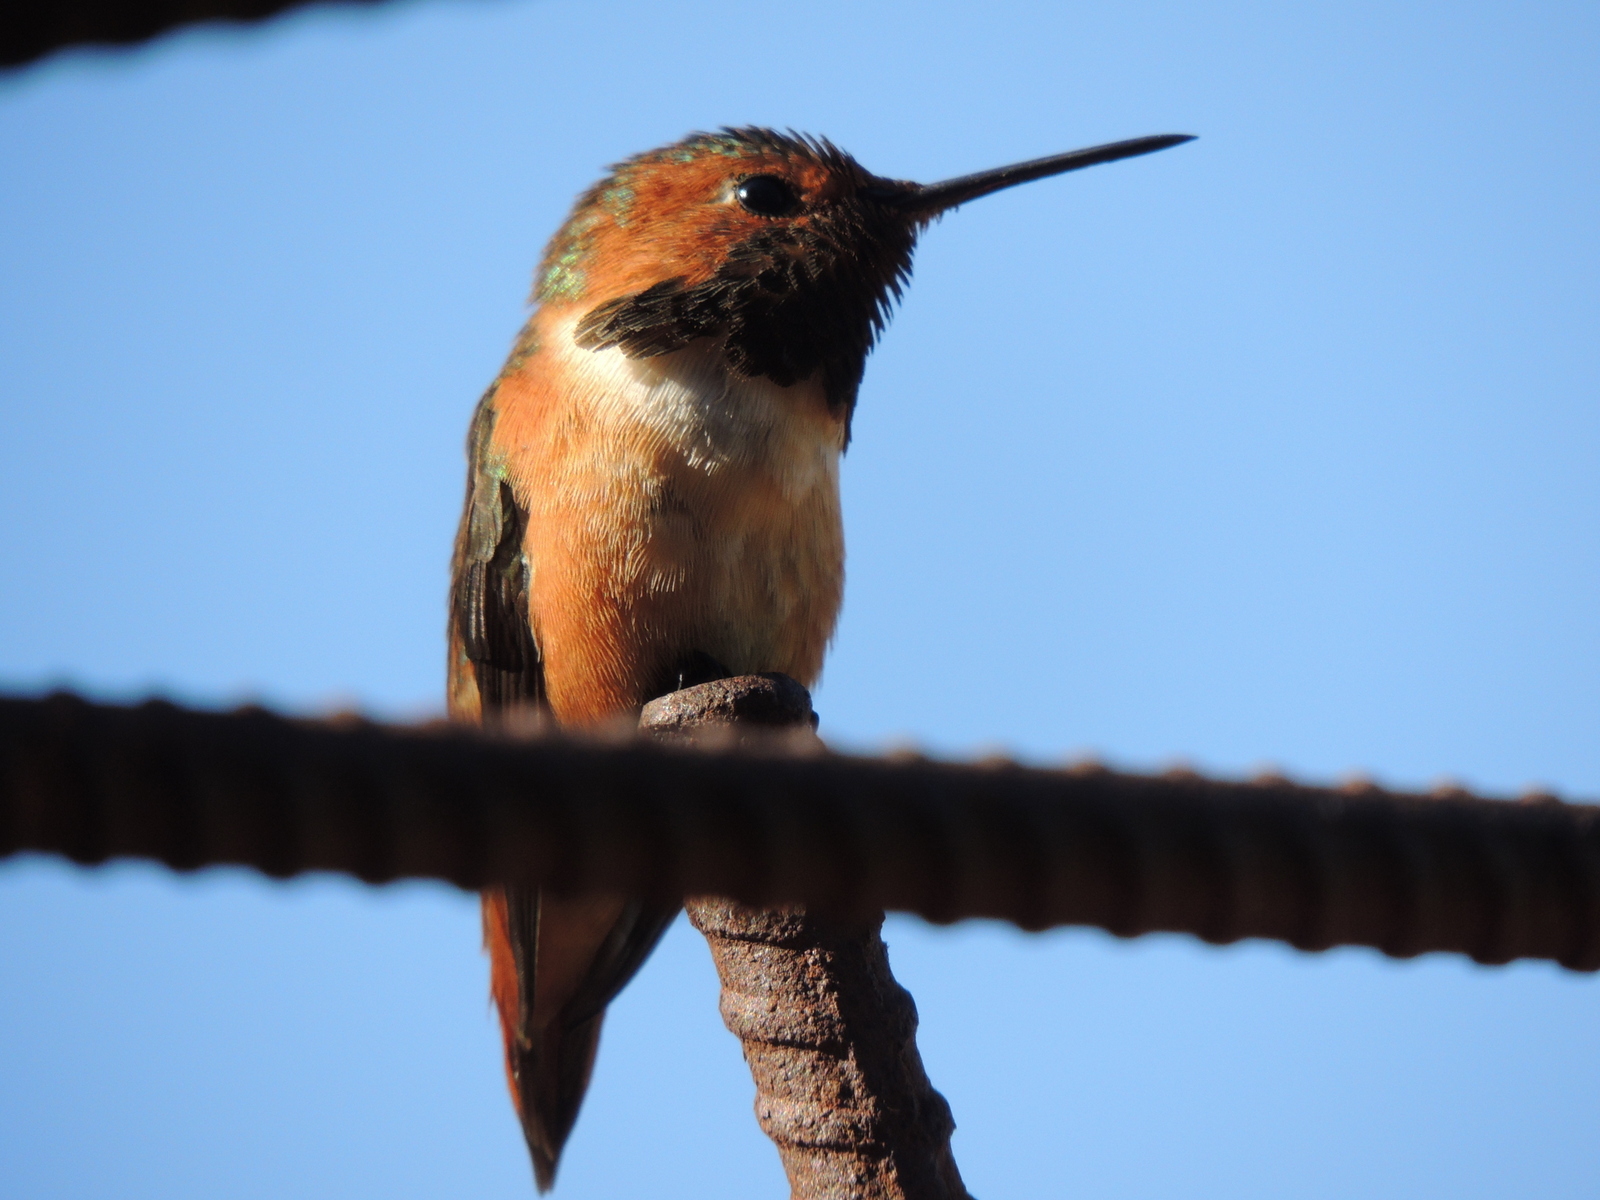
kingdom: Animalia
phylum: Chordata
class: Aves
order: Apodiformes
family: Trochilidae
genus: Selasphorus
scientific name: Selasphorus sasin
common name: Allen's hummingbird
